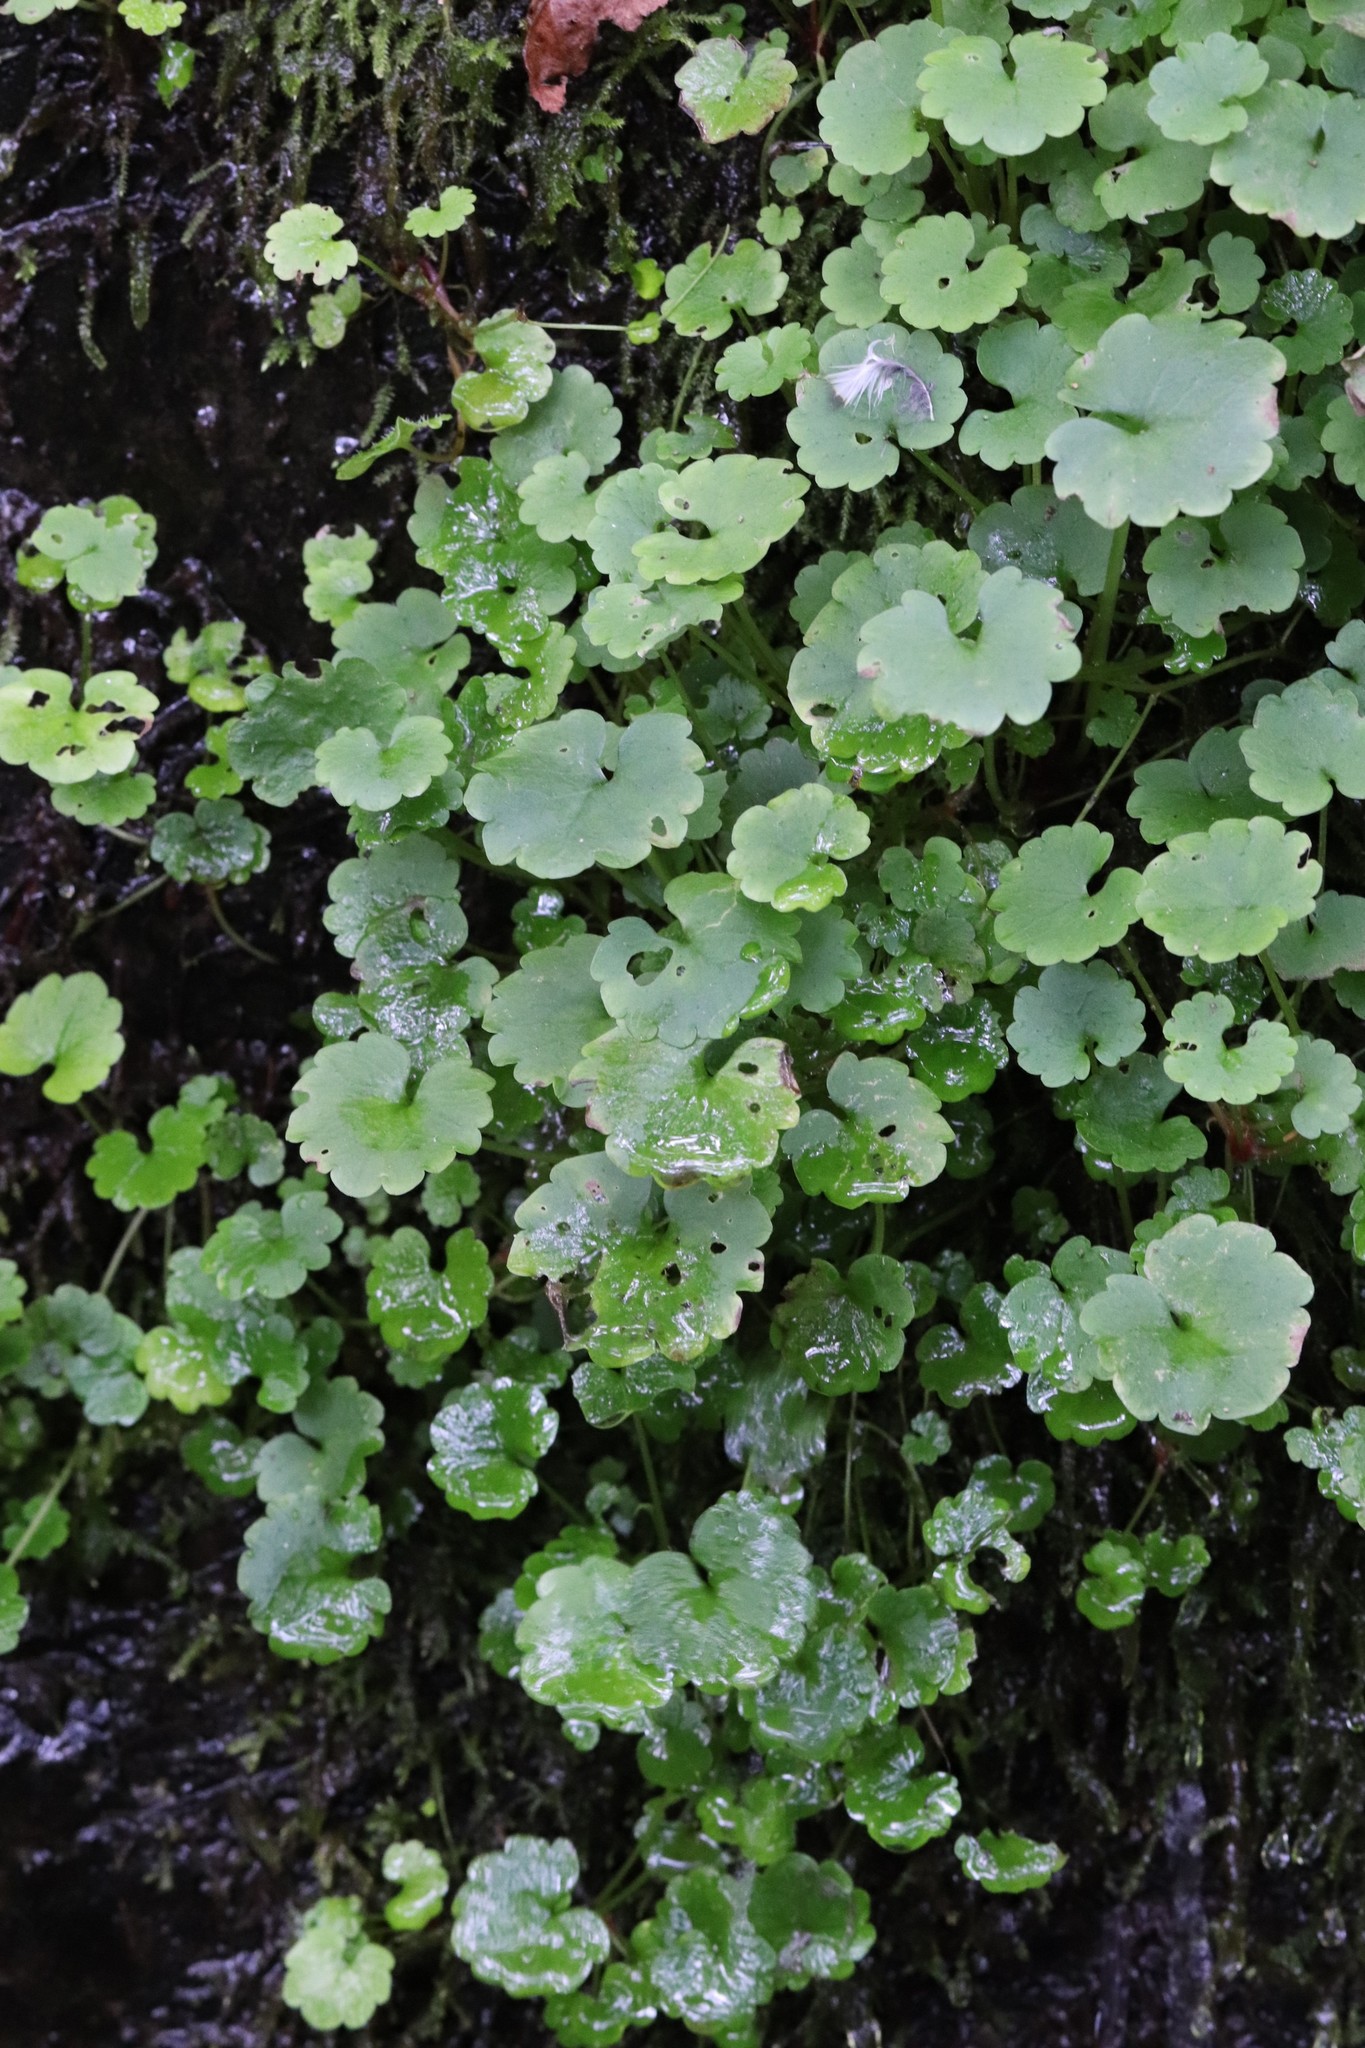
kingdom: Plantae
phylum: Tracheophyta
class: Magnoliopsida
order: Saxifragales
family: Saxifragaceae
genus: Chrysosplenium
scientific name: Chrysosplenium flagelliferum
